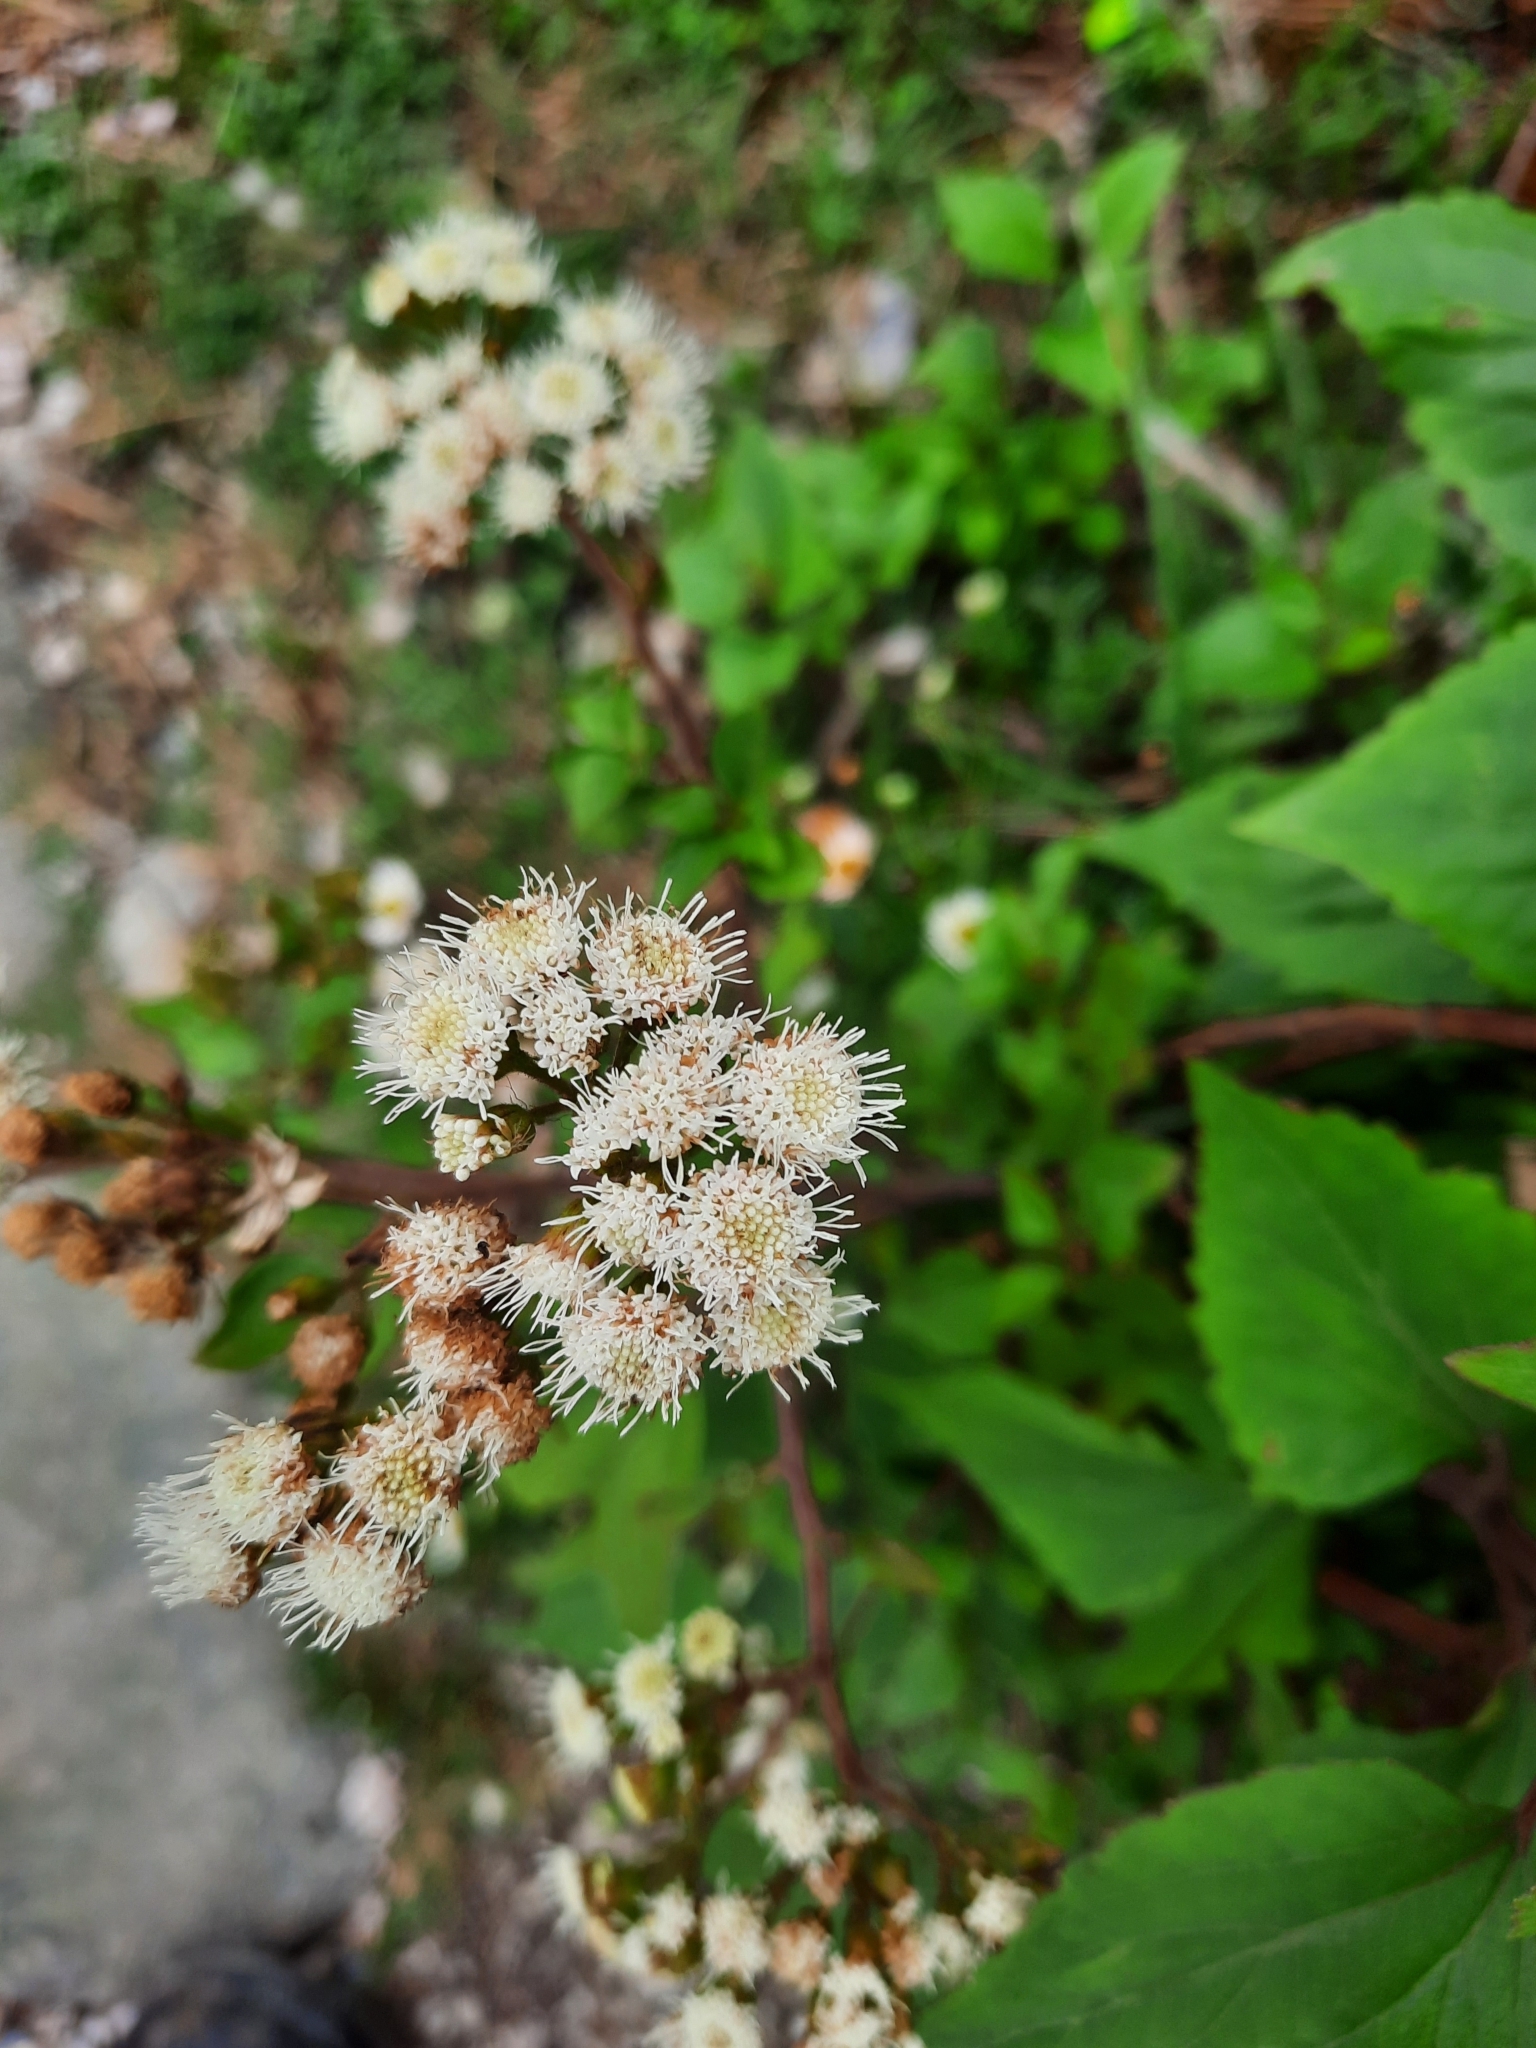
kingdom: Plantae
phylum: Tracheophyta
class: Magnoliopsida
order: Asterales
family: Asteraceae
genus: Ageratina
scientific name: Ageratina adenophora
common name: Sticky snakeroot
